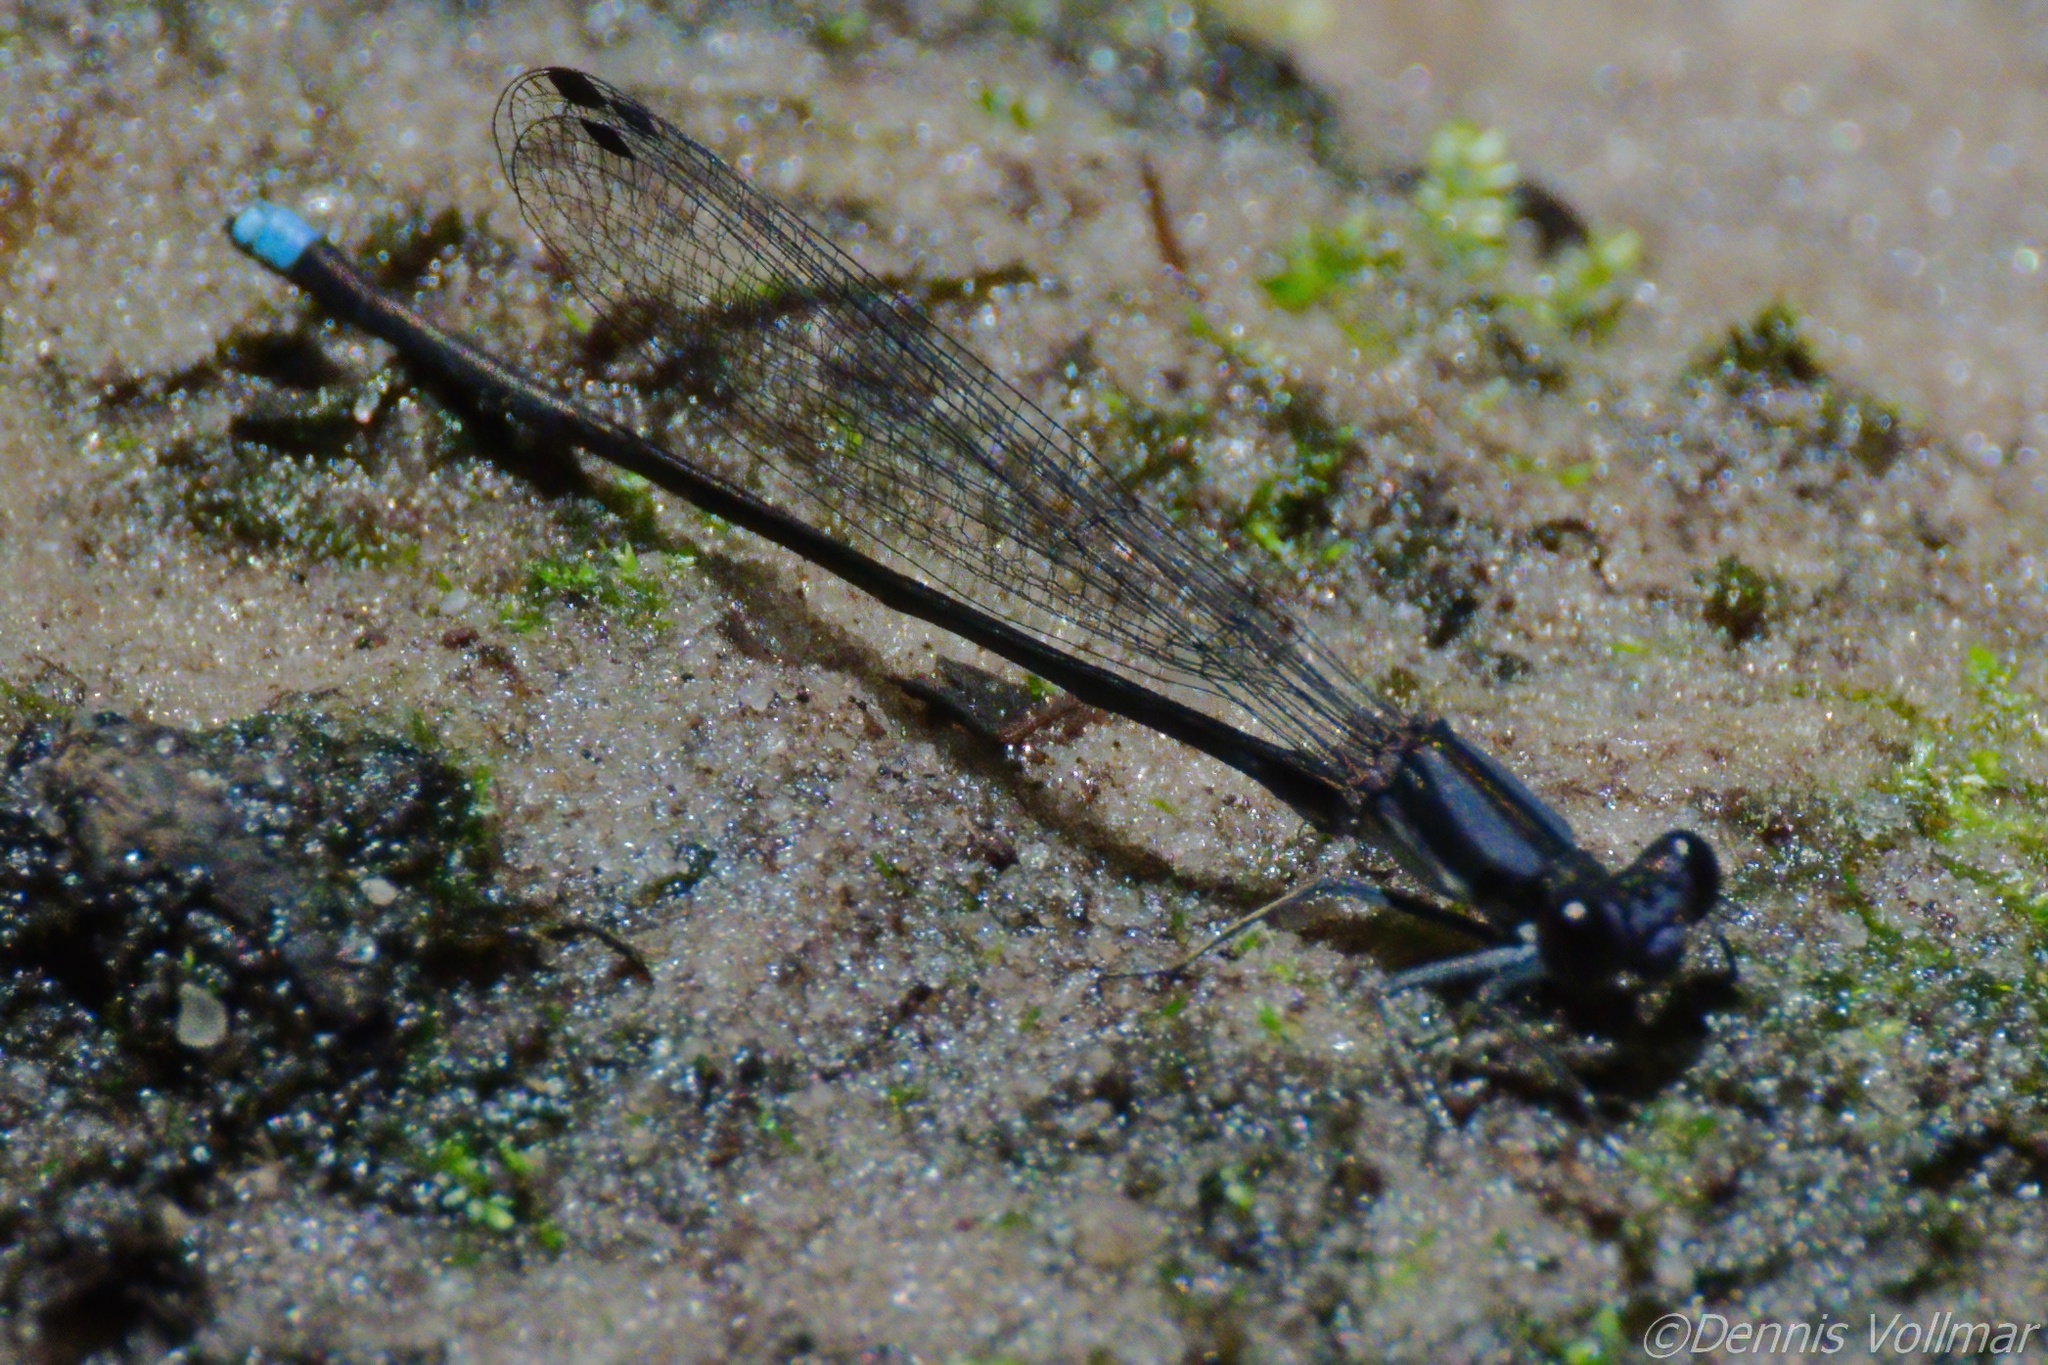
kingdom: Animalia
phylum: Arthropoda
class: Insecta
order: Odonata
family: Coenagrionidae
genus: Argia
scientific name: Argia tibialis
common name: Blue-tipped dancer
